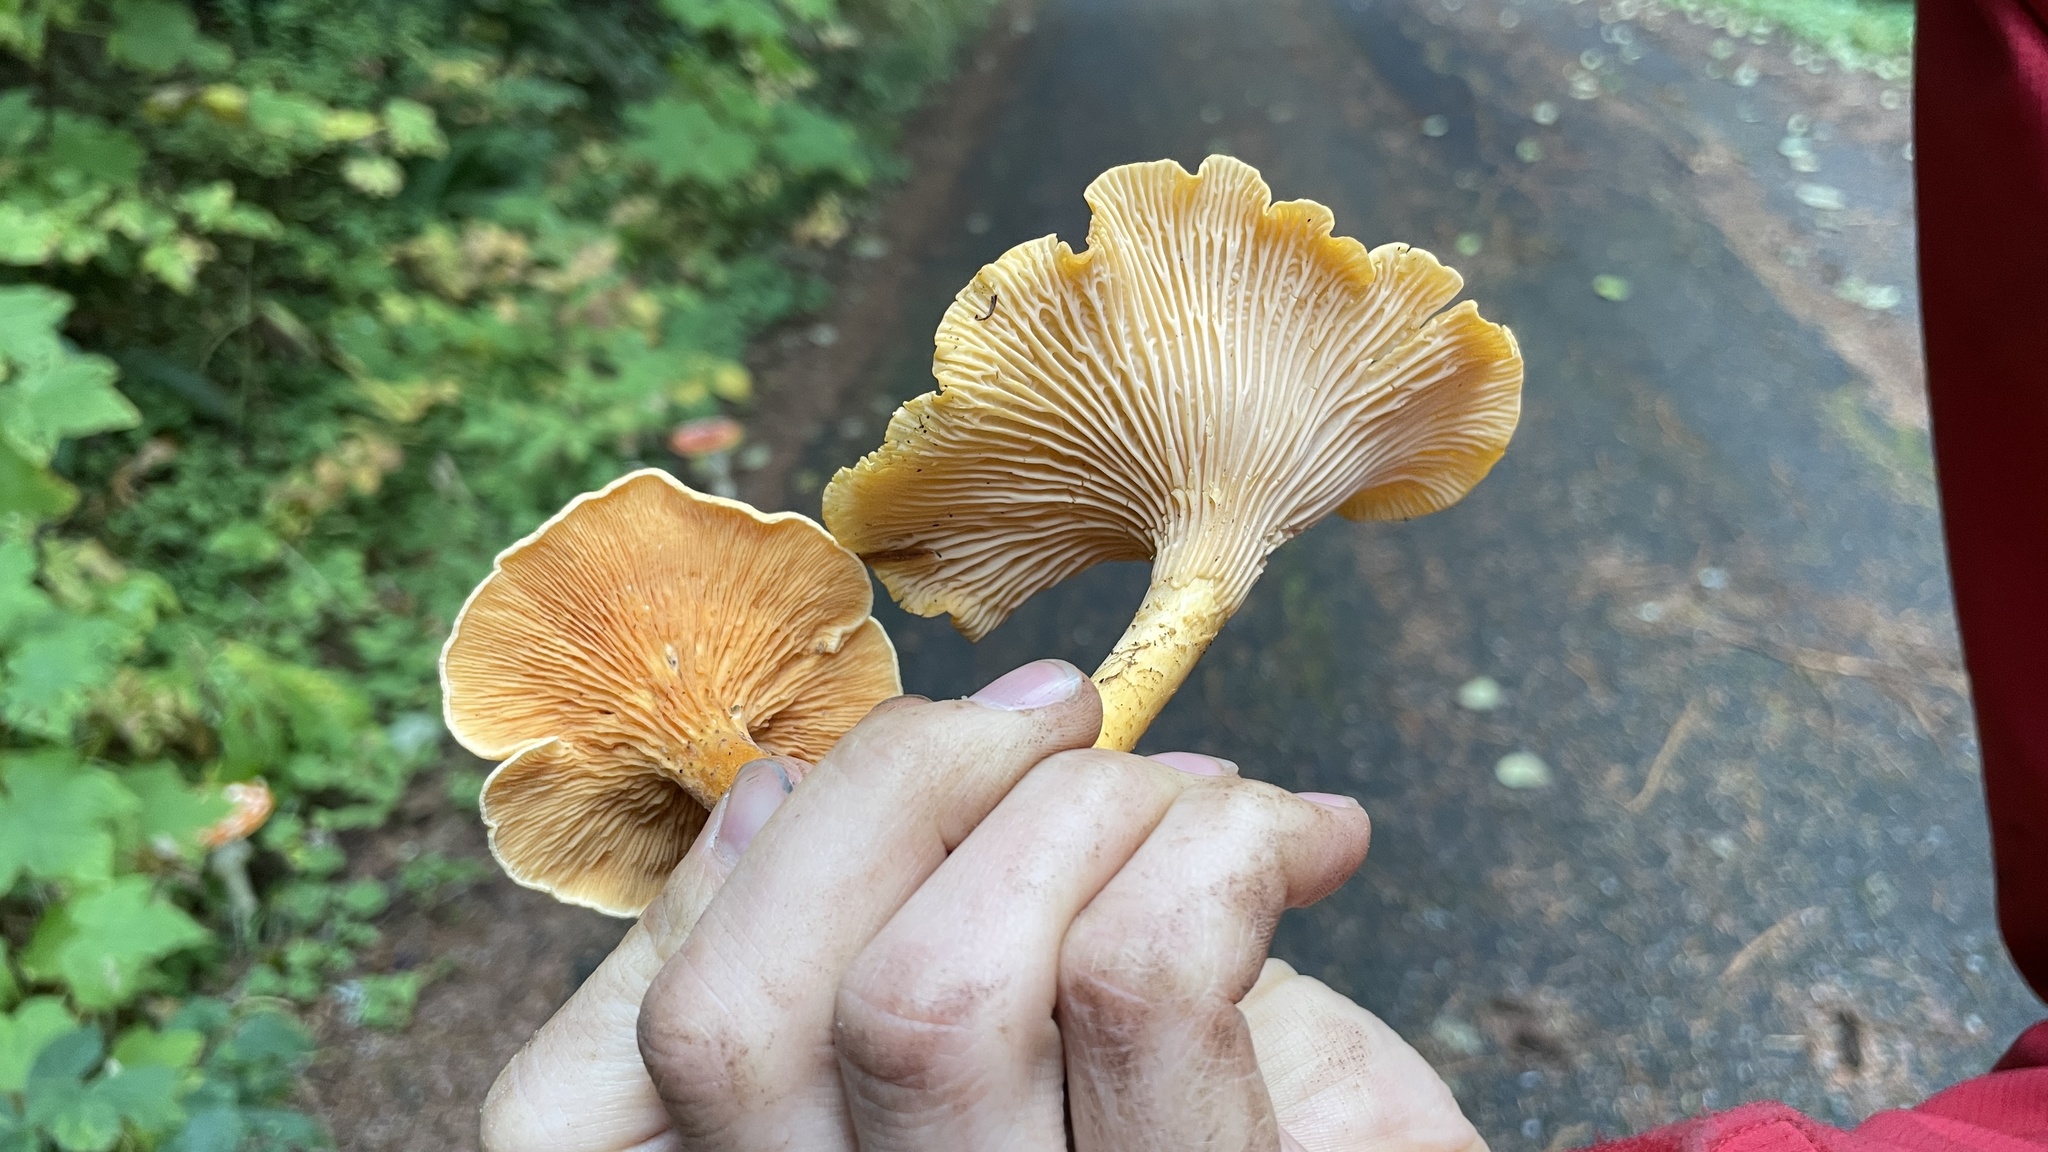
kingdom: Fungi
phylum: Basidiomycota
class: Agaricomycetes
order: Boletales
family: Hygrophoropsidaceae
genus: Hygrophoropsis
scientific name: Hygrophoropsis aurantiaca
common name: False chanterelle
